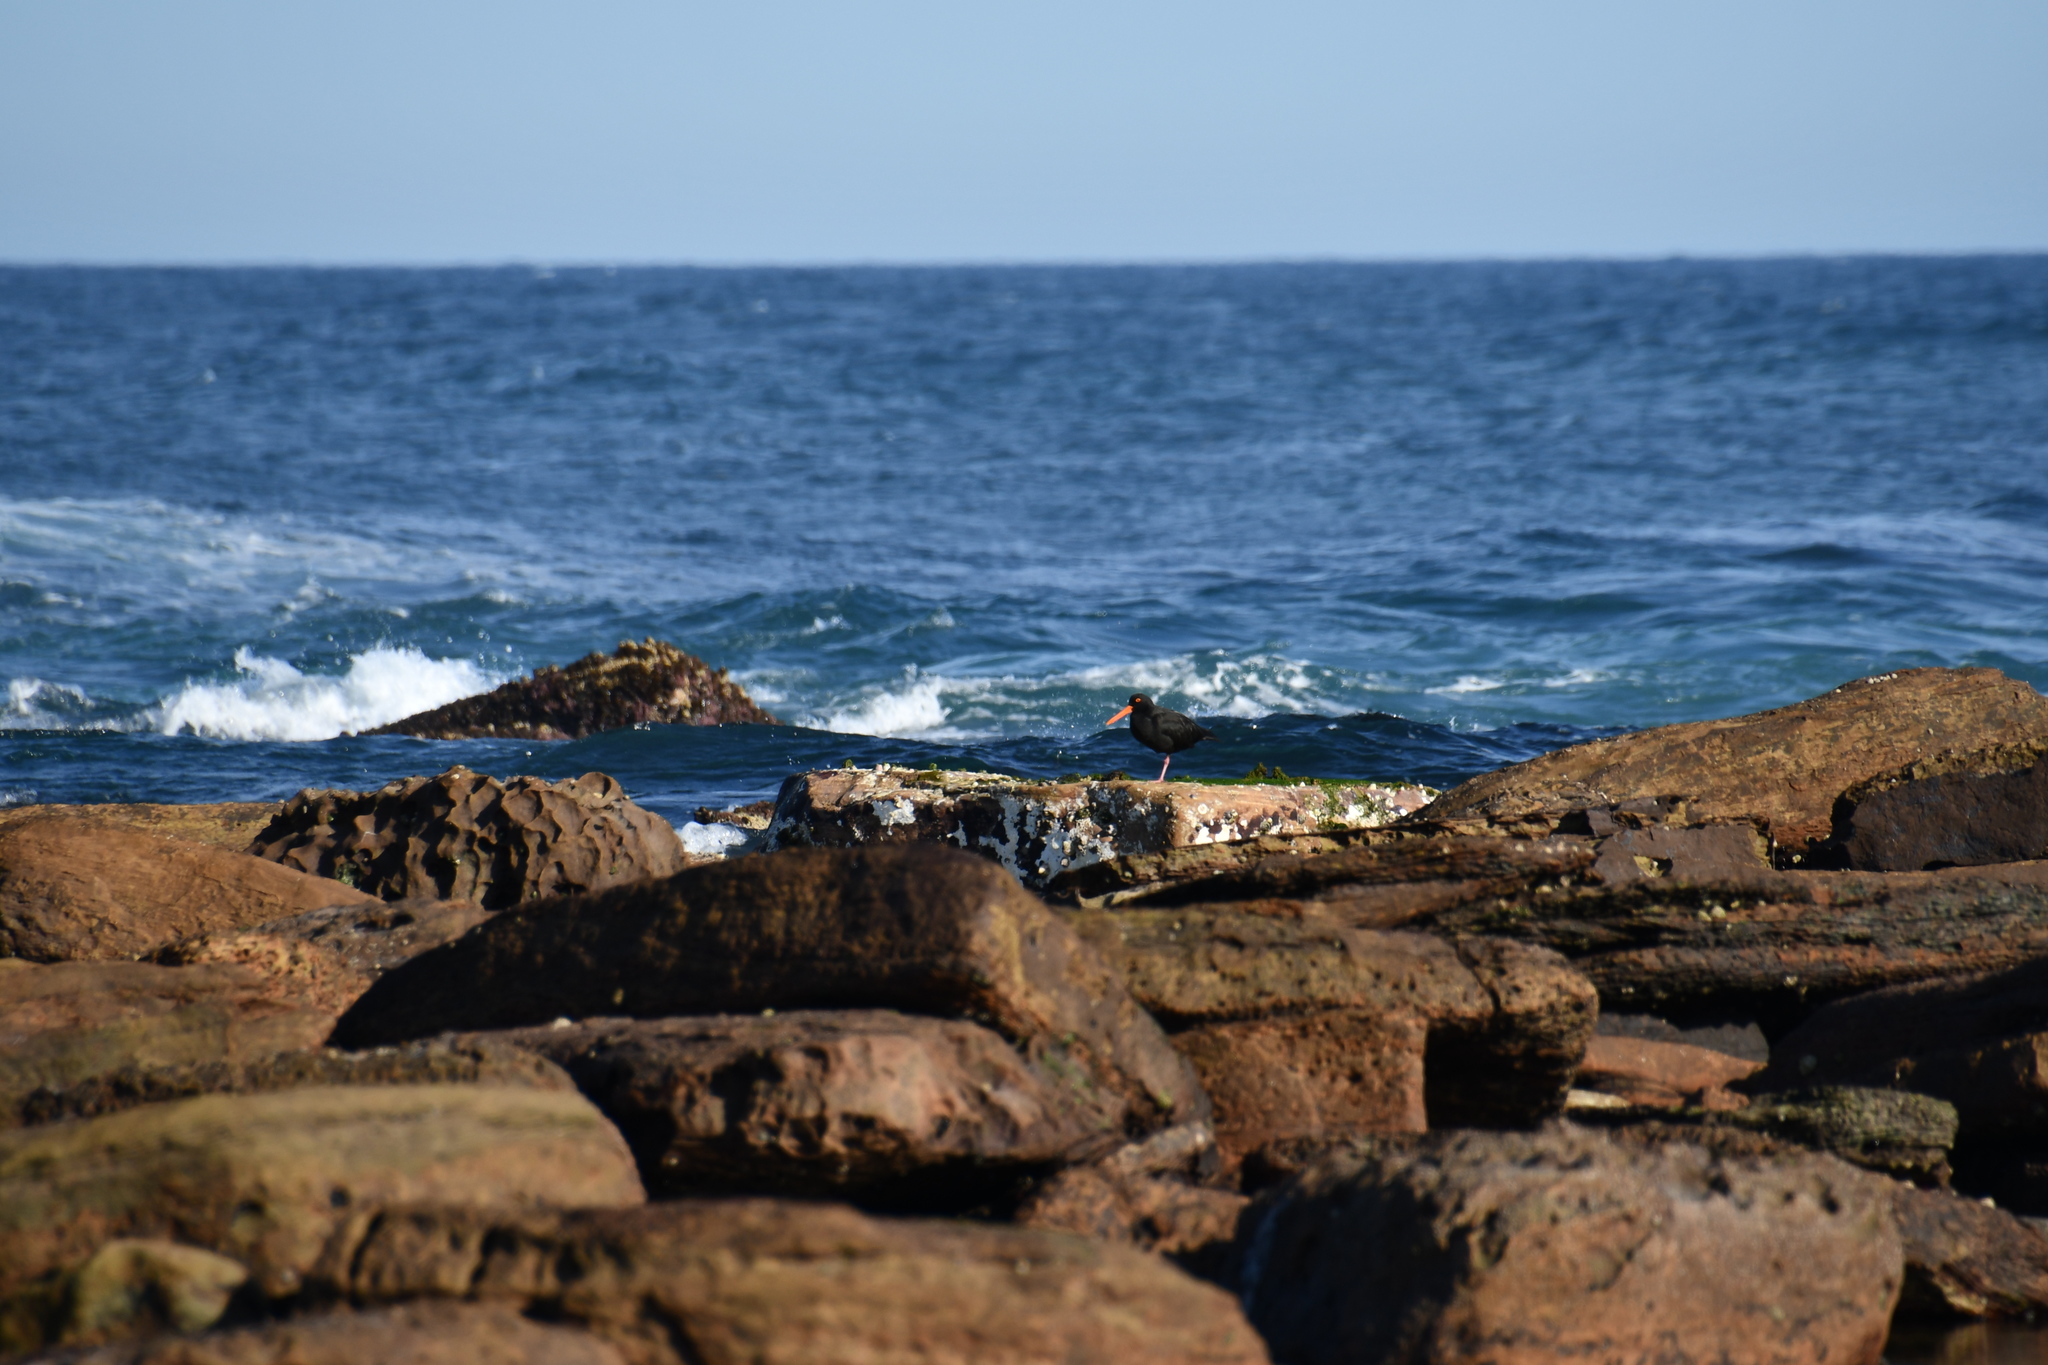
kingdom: Animalia
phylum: Chordata
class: Aves
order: Charadriiformes
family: Haematopodidae
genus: Haematopus
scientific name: Haematopus fuliginosus
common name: Sooty oystercatcher
